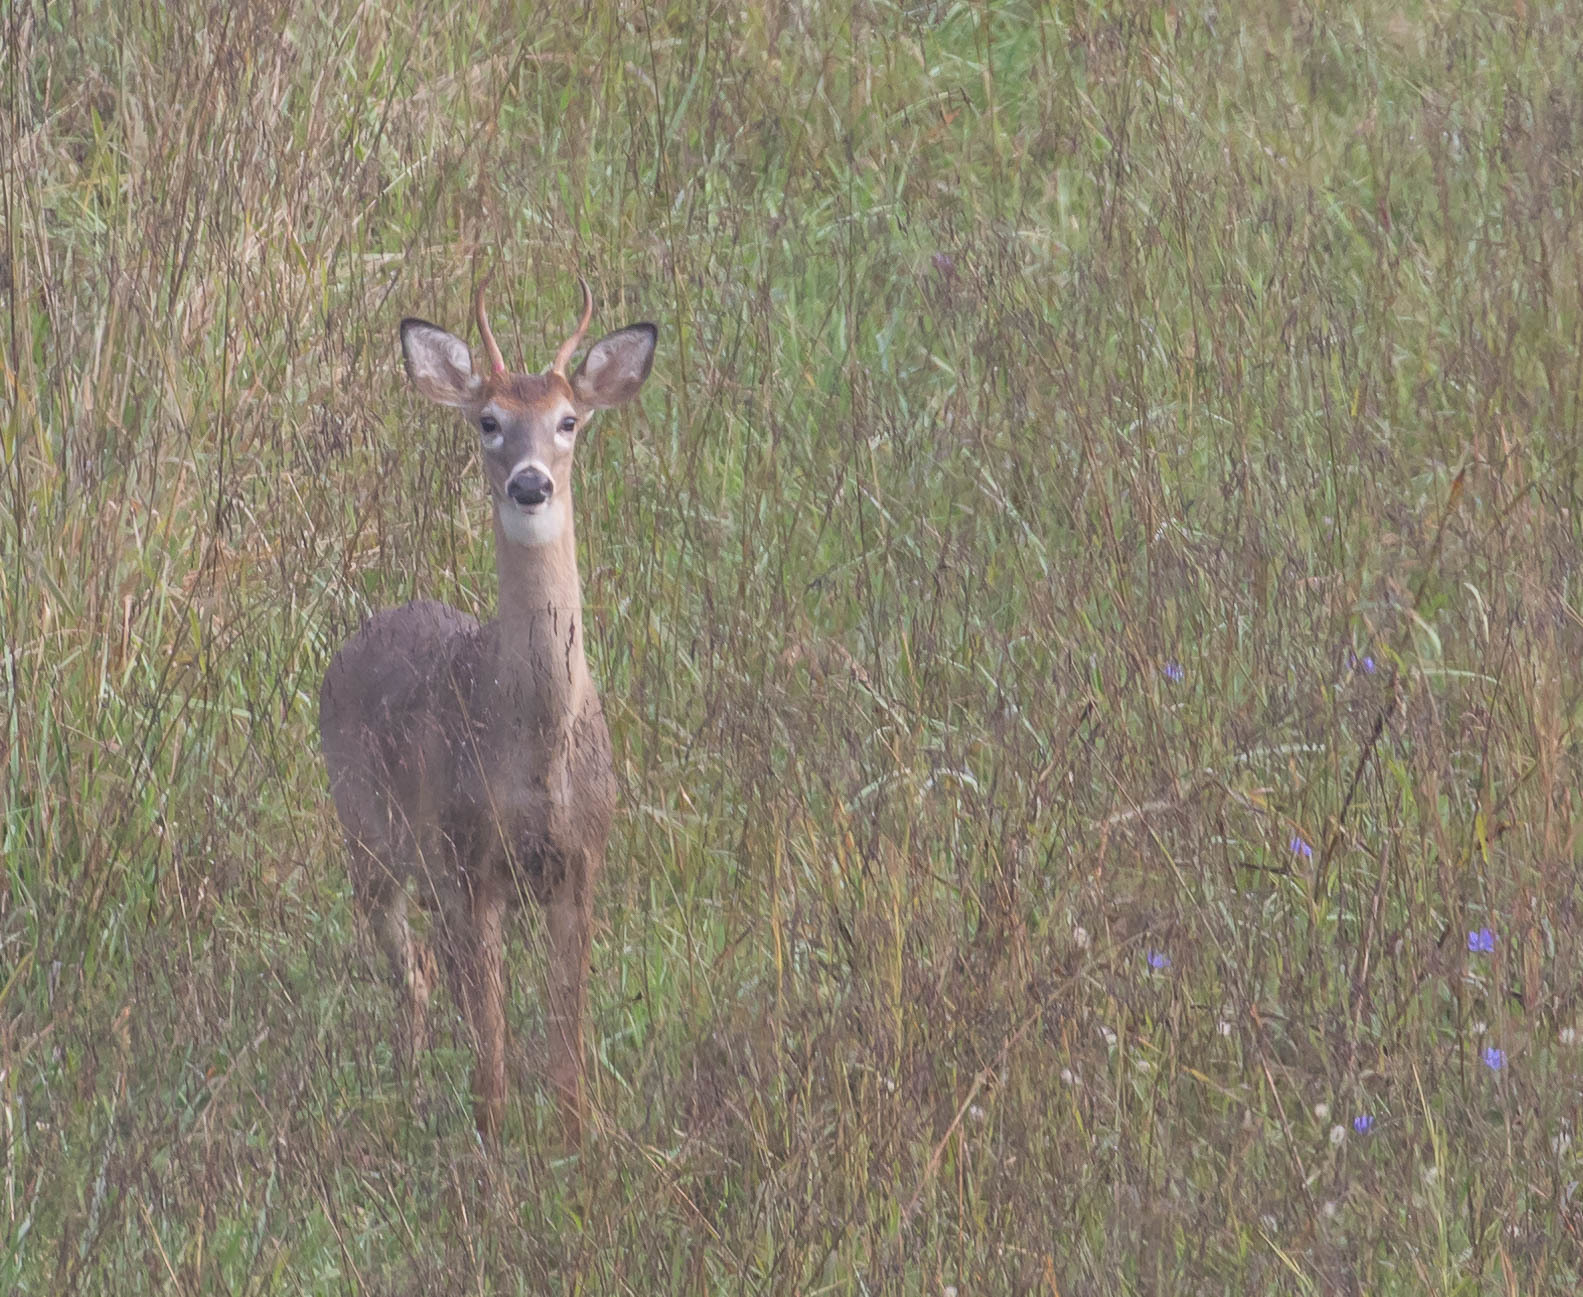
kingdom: Animalia
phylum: Chordata
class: Mammalia
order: Artiodactyla
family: Cervidae
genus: Odocoileus
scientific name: Odocoileus virginianus
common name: White-tailed deer
